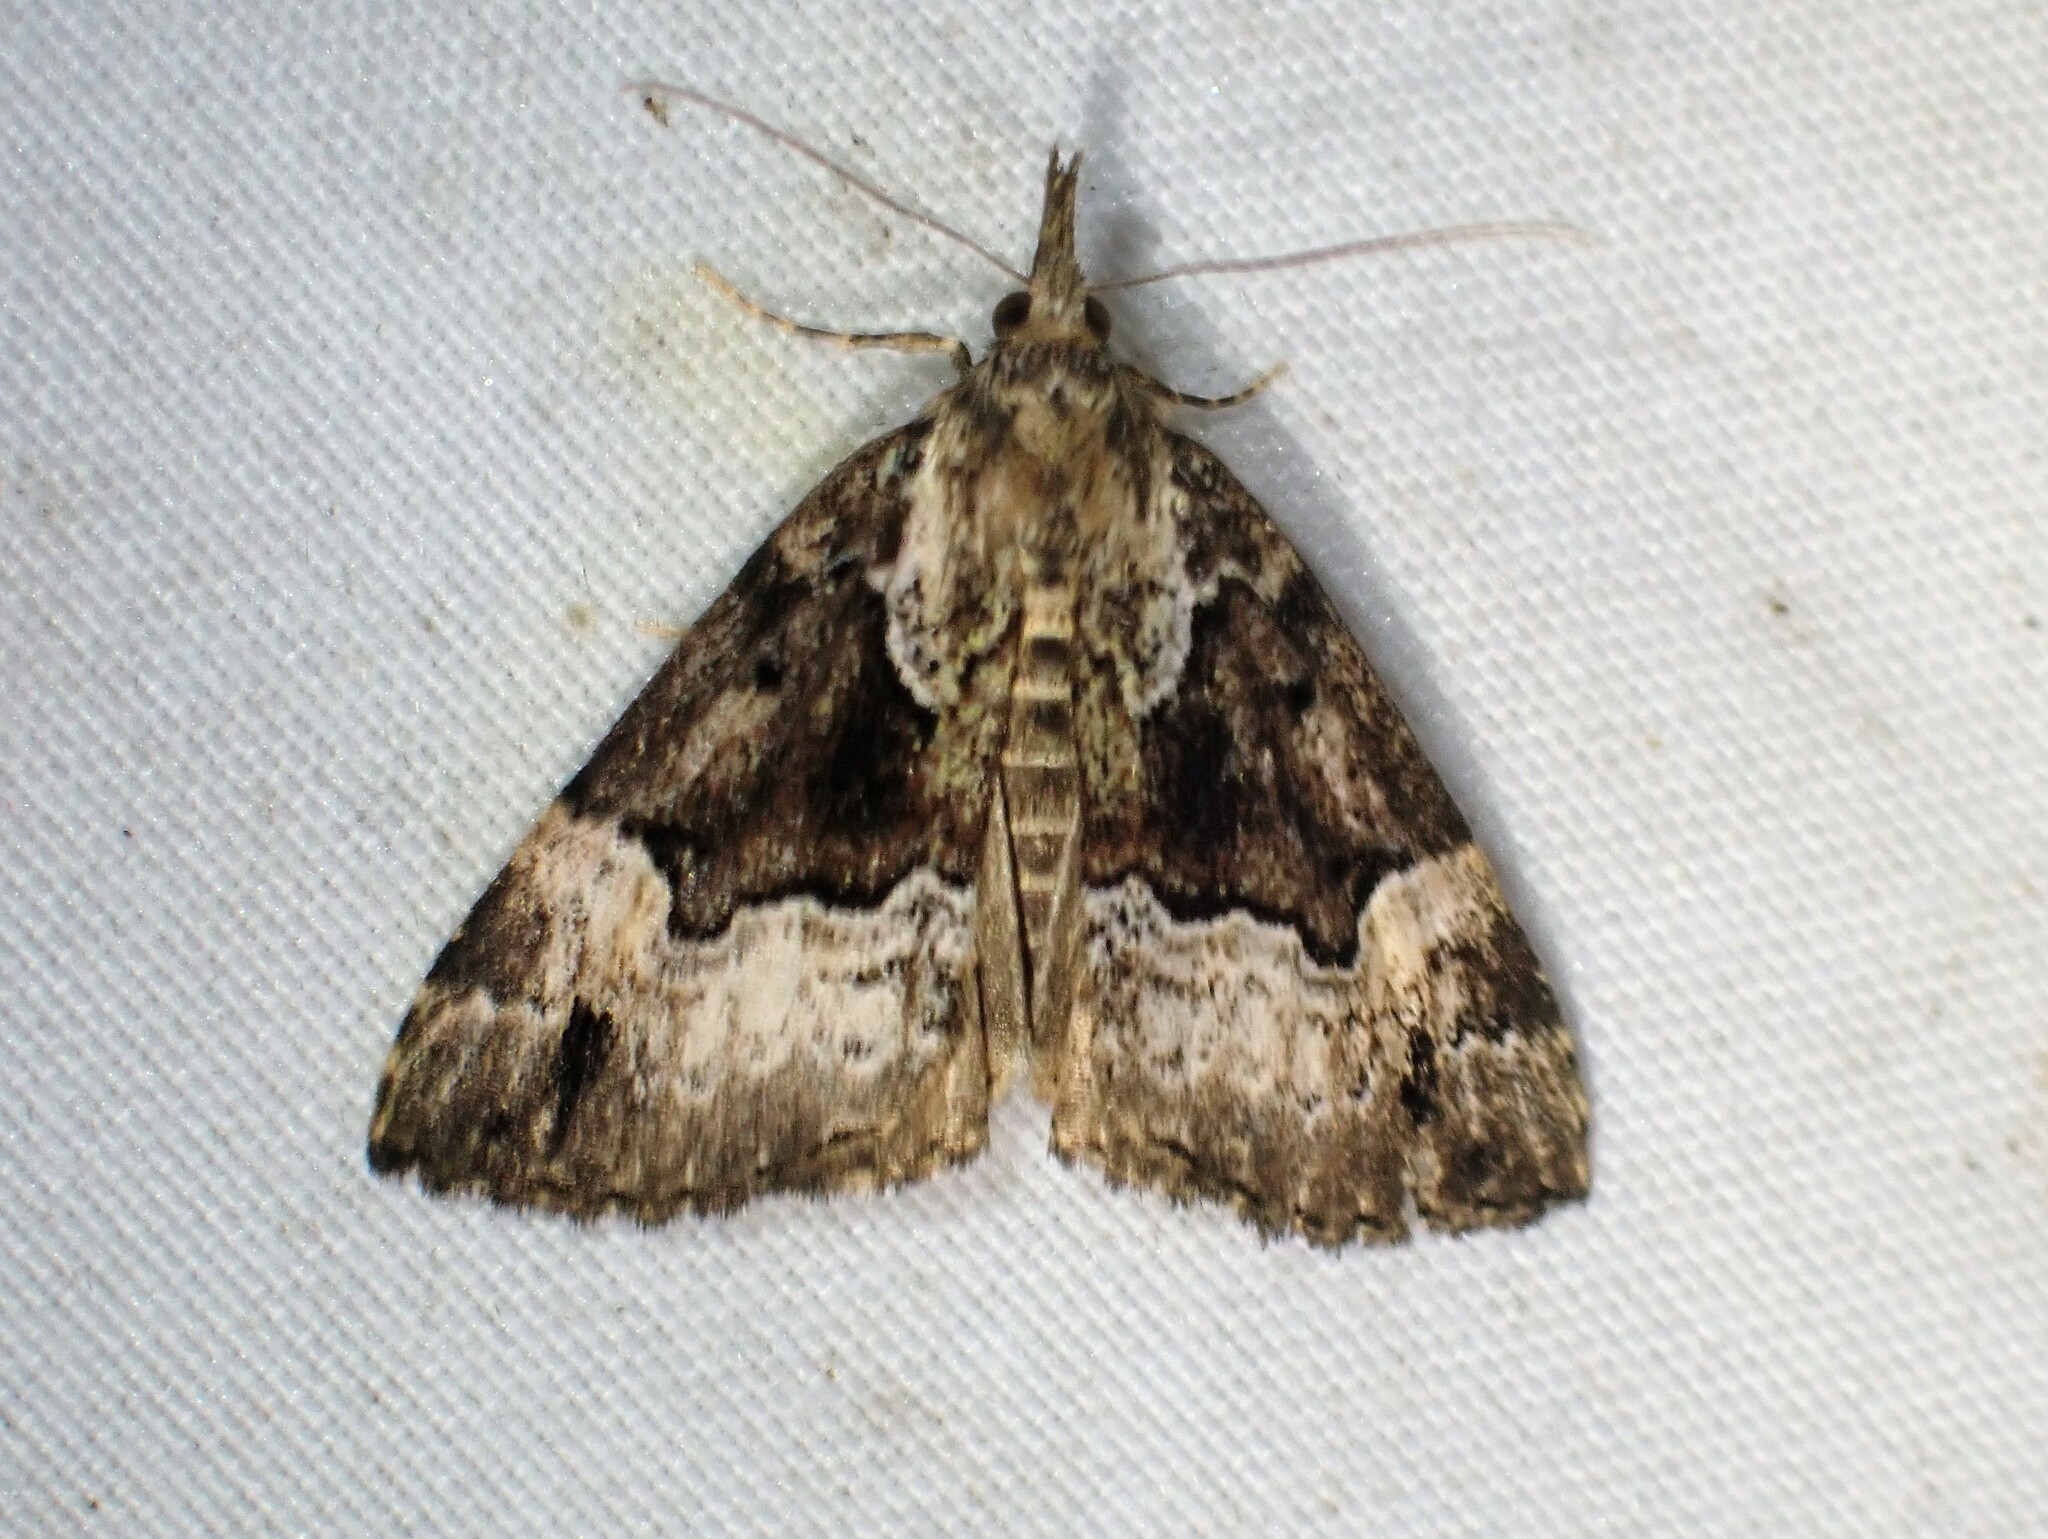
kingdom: Animalia
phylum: Arthropoda
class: Insecta
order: Lepidoptera
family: Erebidae
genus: Hypena
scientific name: Hypena palparia
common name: Mottled bomolocha moth
